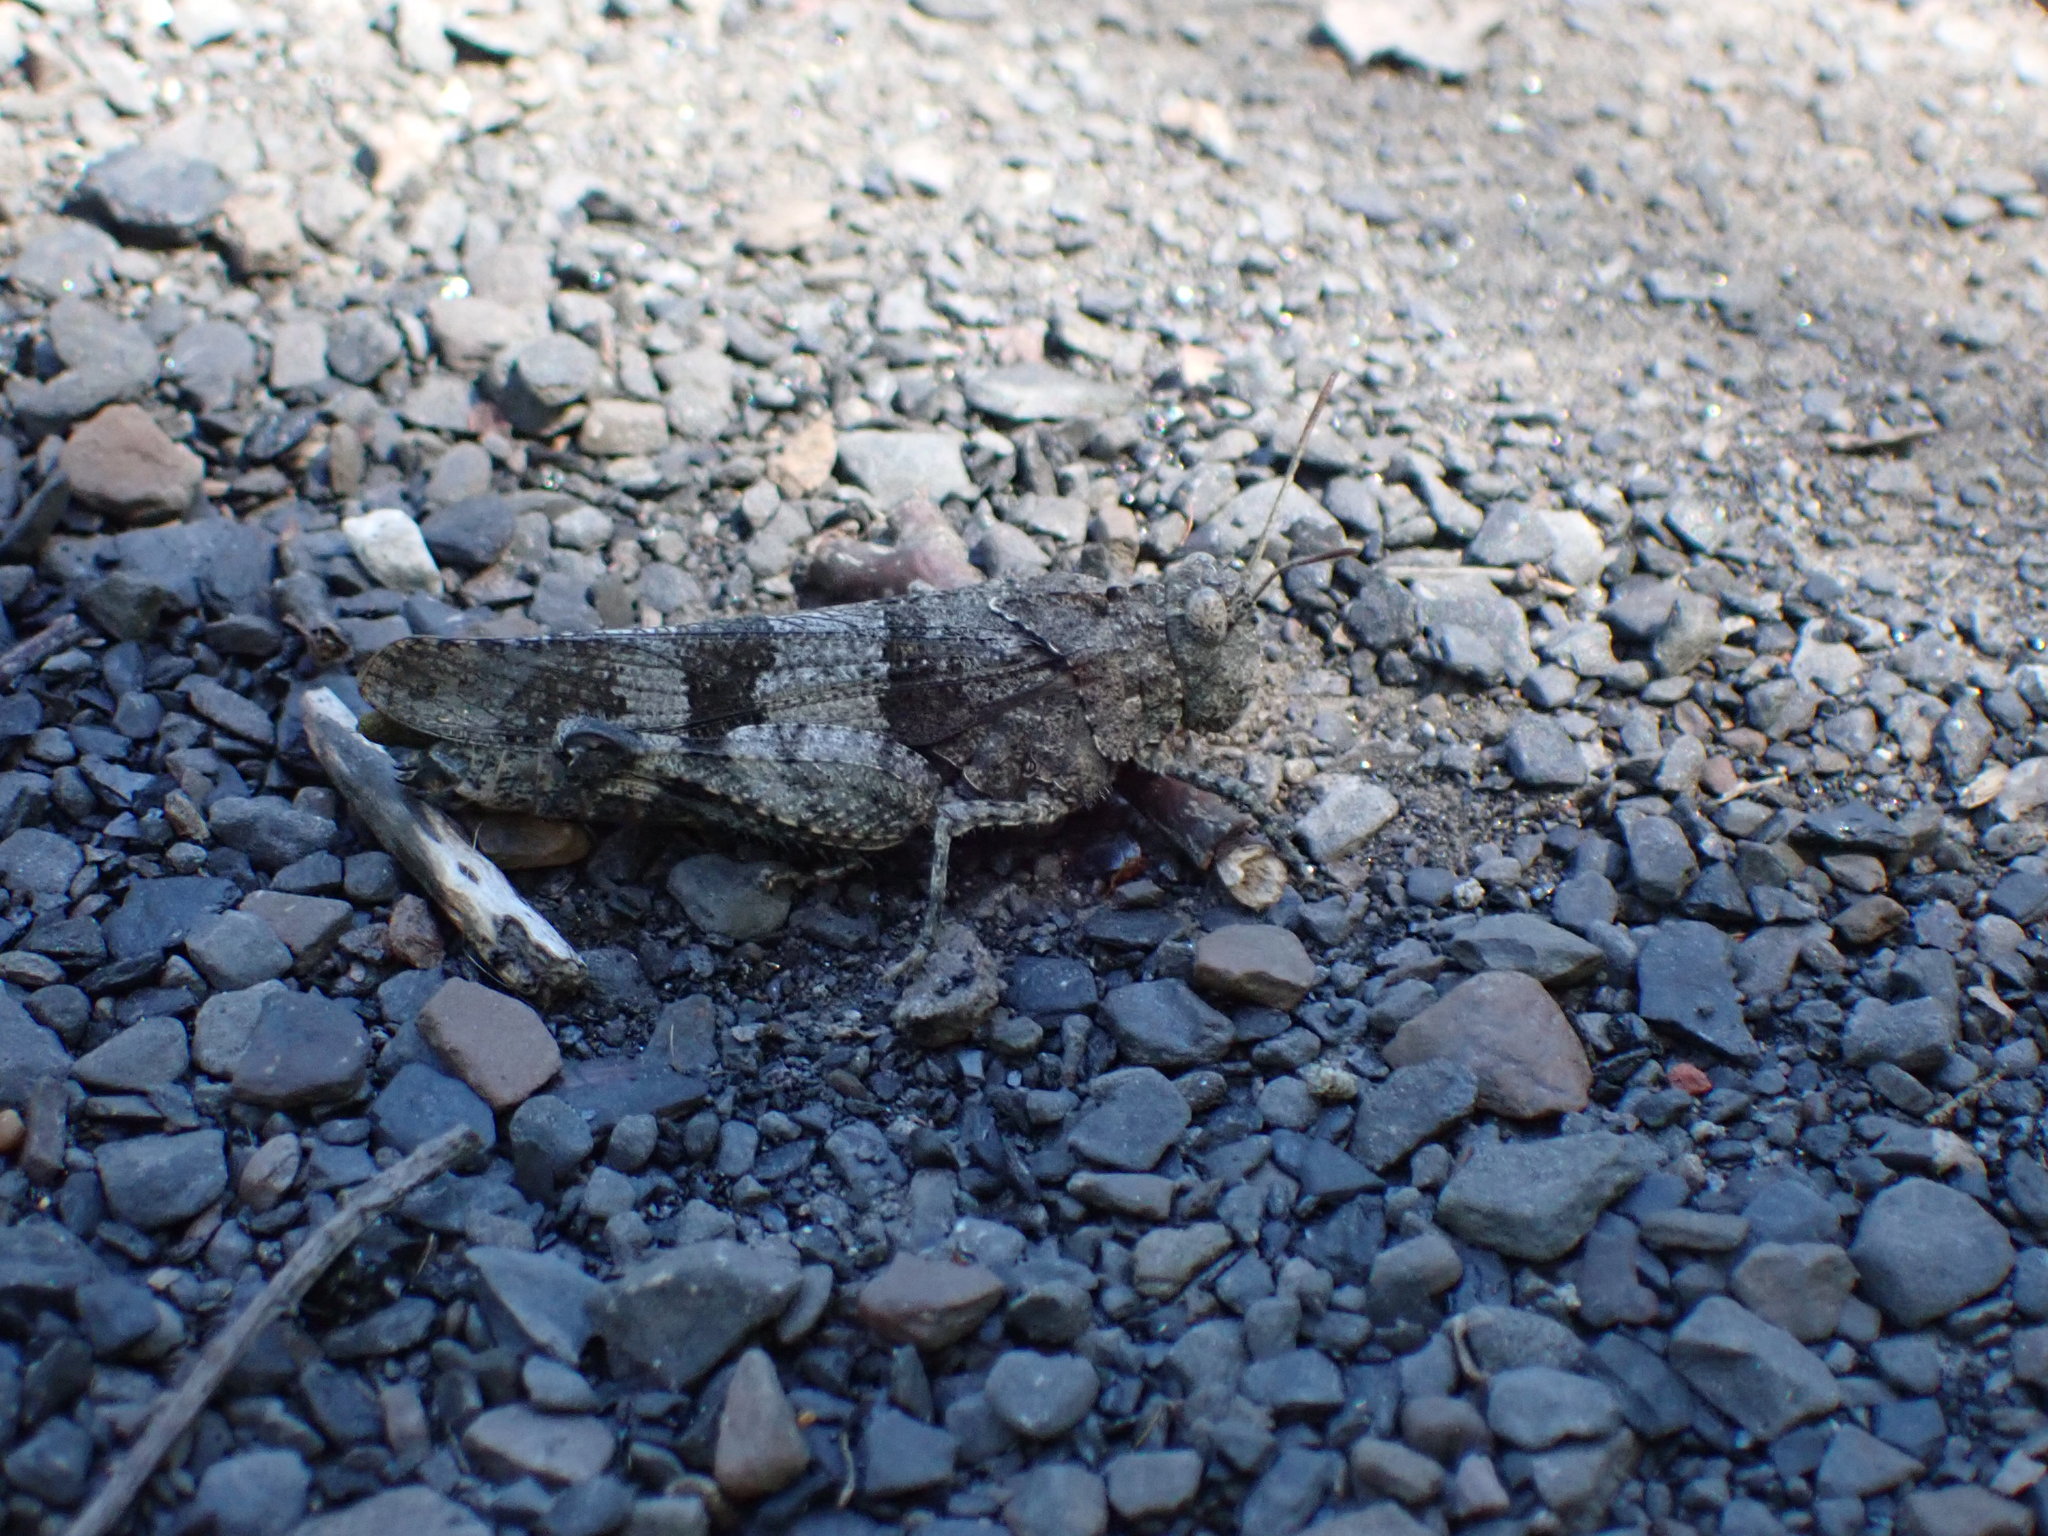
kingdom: Animalia
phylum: Arthropoda
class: Insecta
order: Orthoptera
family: Acrididae
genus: Oedipoda
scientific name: Oedipoda caerulescens
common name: Blue-winged grasshopper
